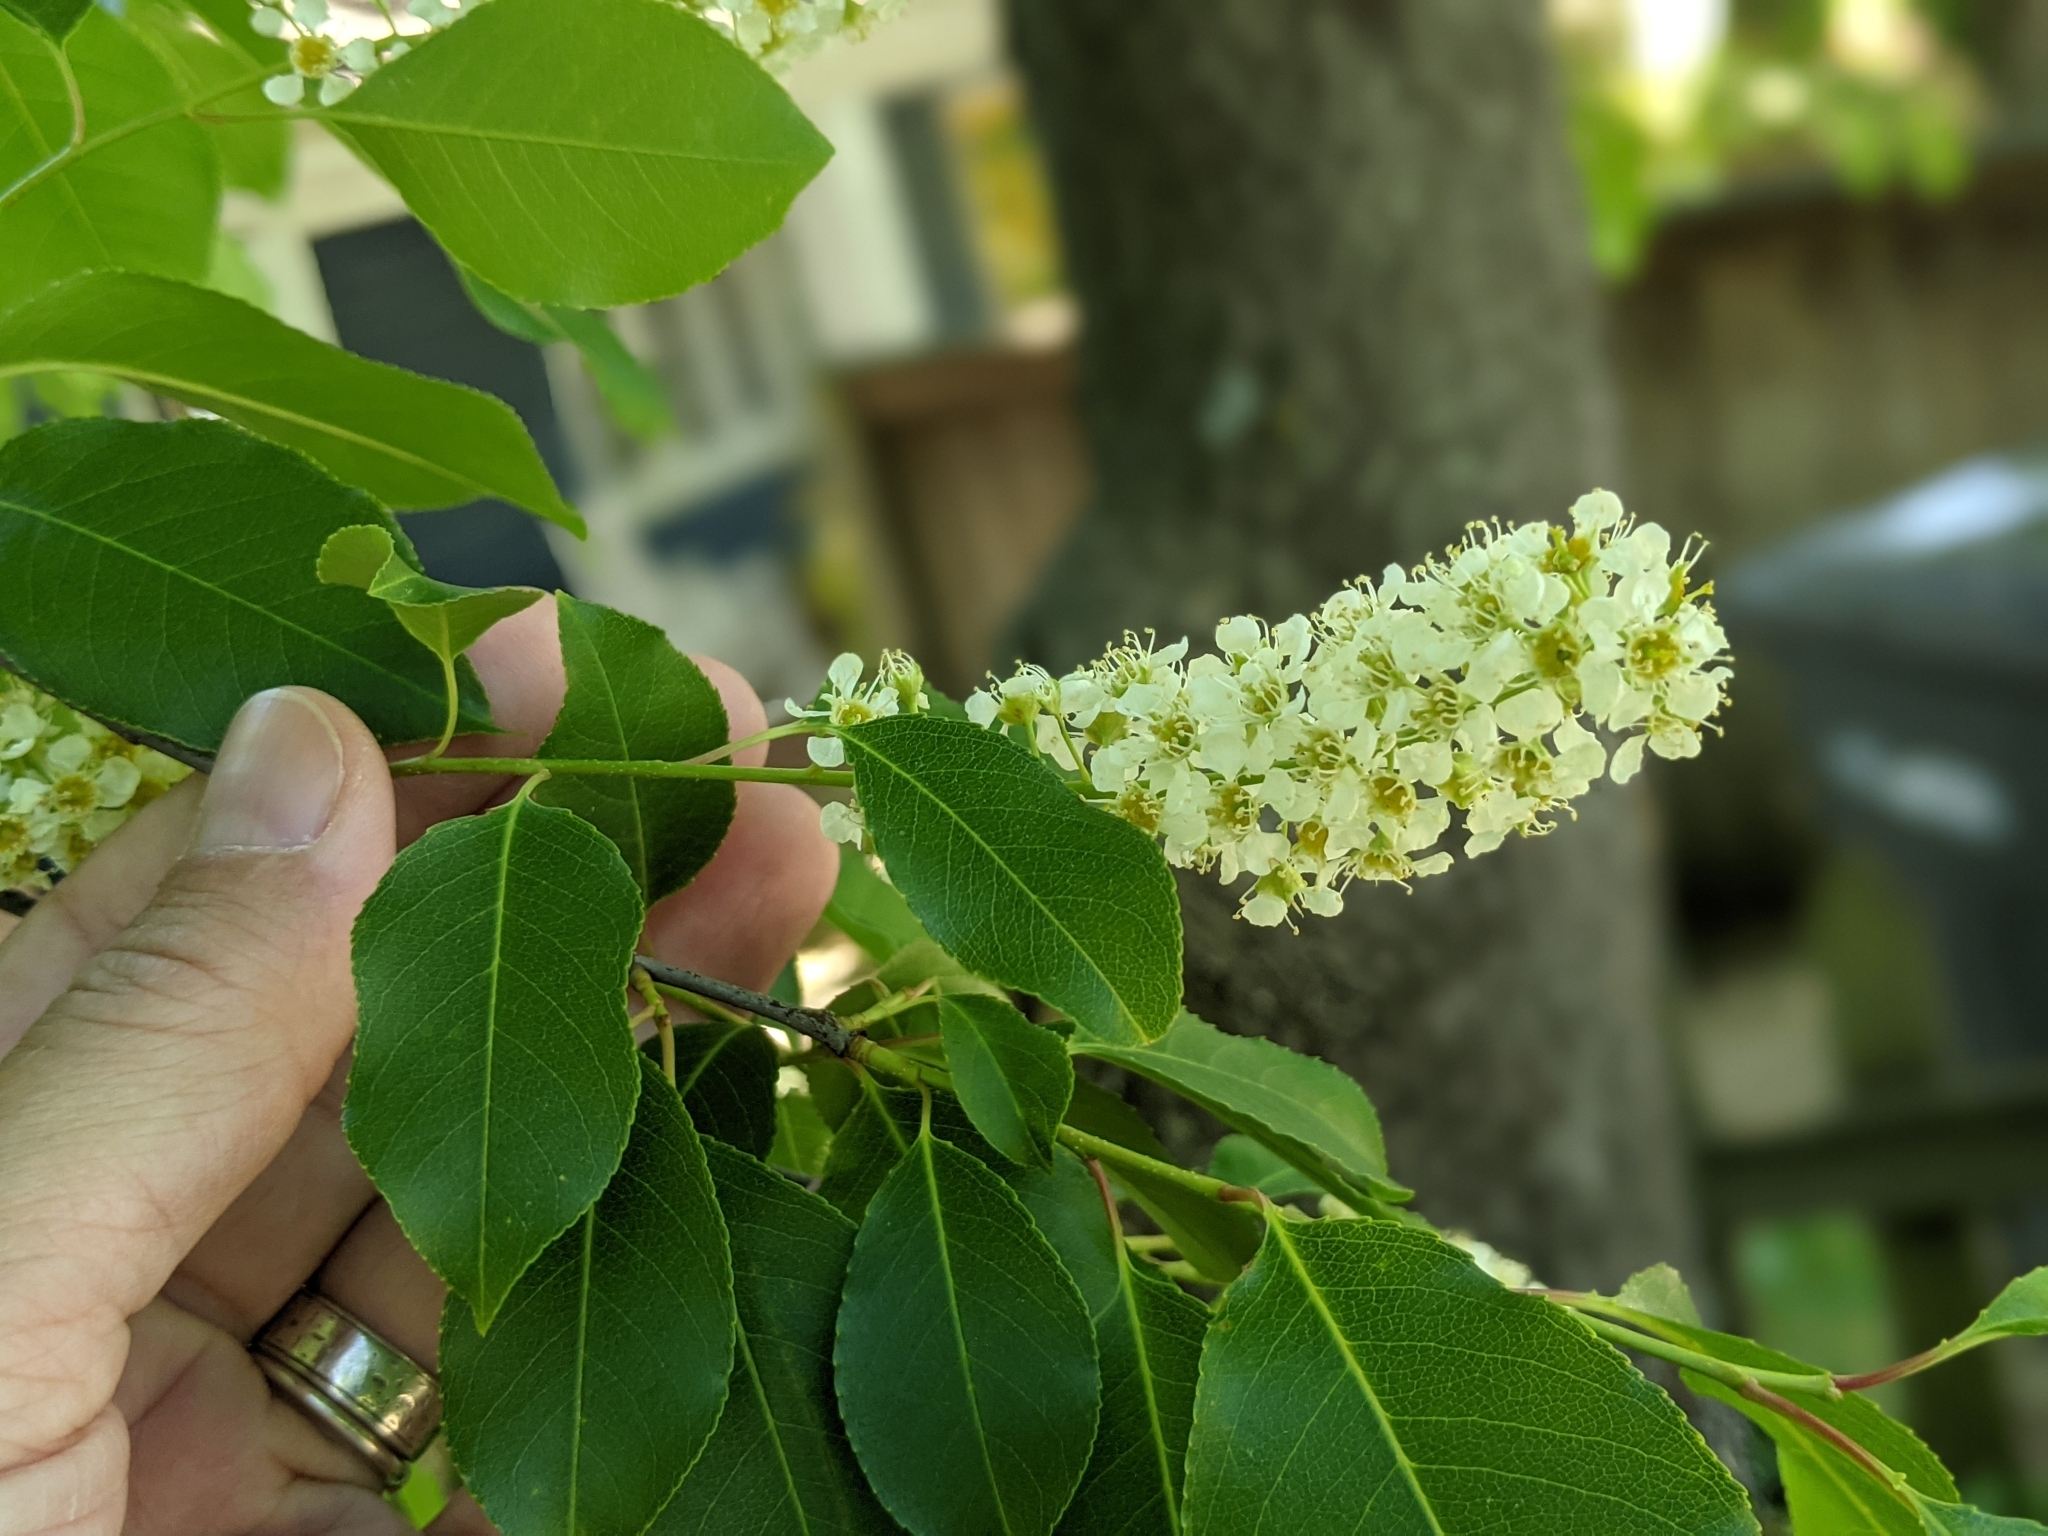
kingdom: Plantae
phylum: Tracheophyta
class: Magnoliopsida
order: Rosales
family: Rosaceae
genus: Prunus
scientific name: Prunus serotina
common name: Black cherry
